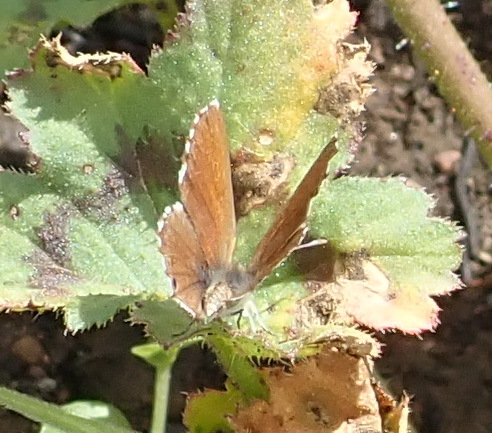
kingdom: Animalia
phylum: Arthropoda
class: Insecta
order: Lepidoptera
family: Lycaenidae
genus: Cacyreus
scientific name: Cacyreus marshalli
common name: Geranium bronze
